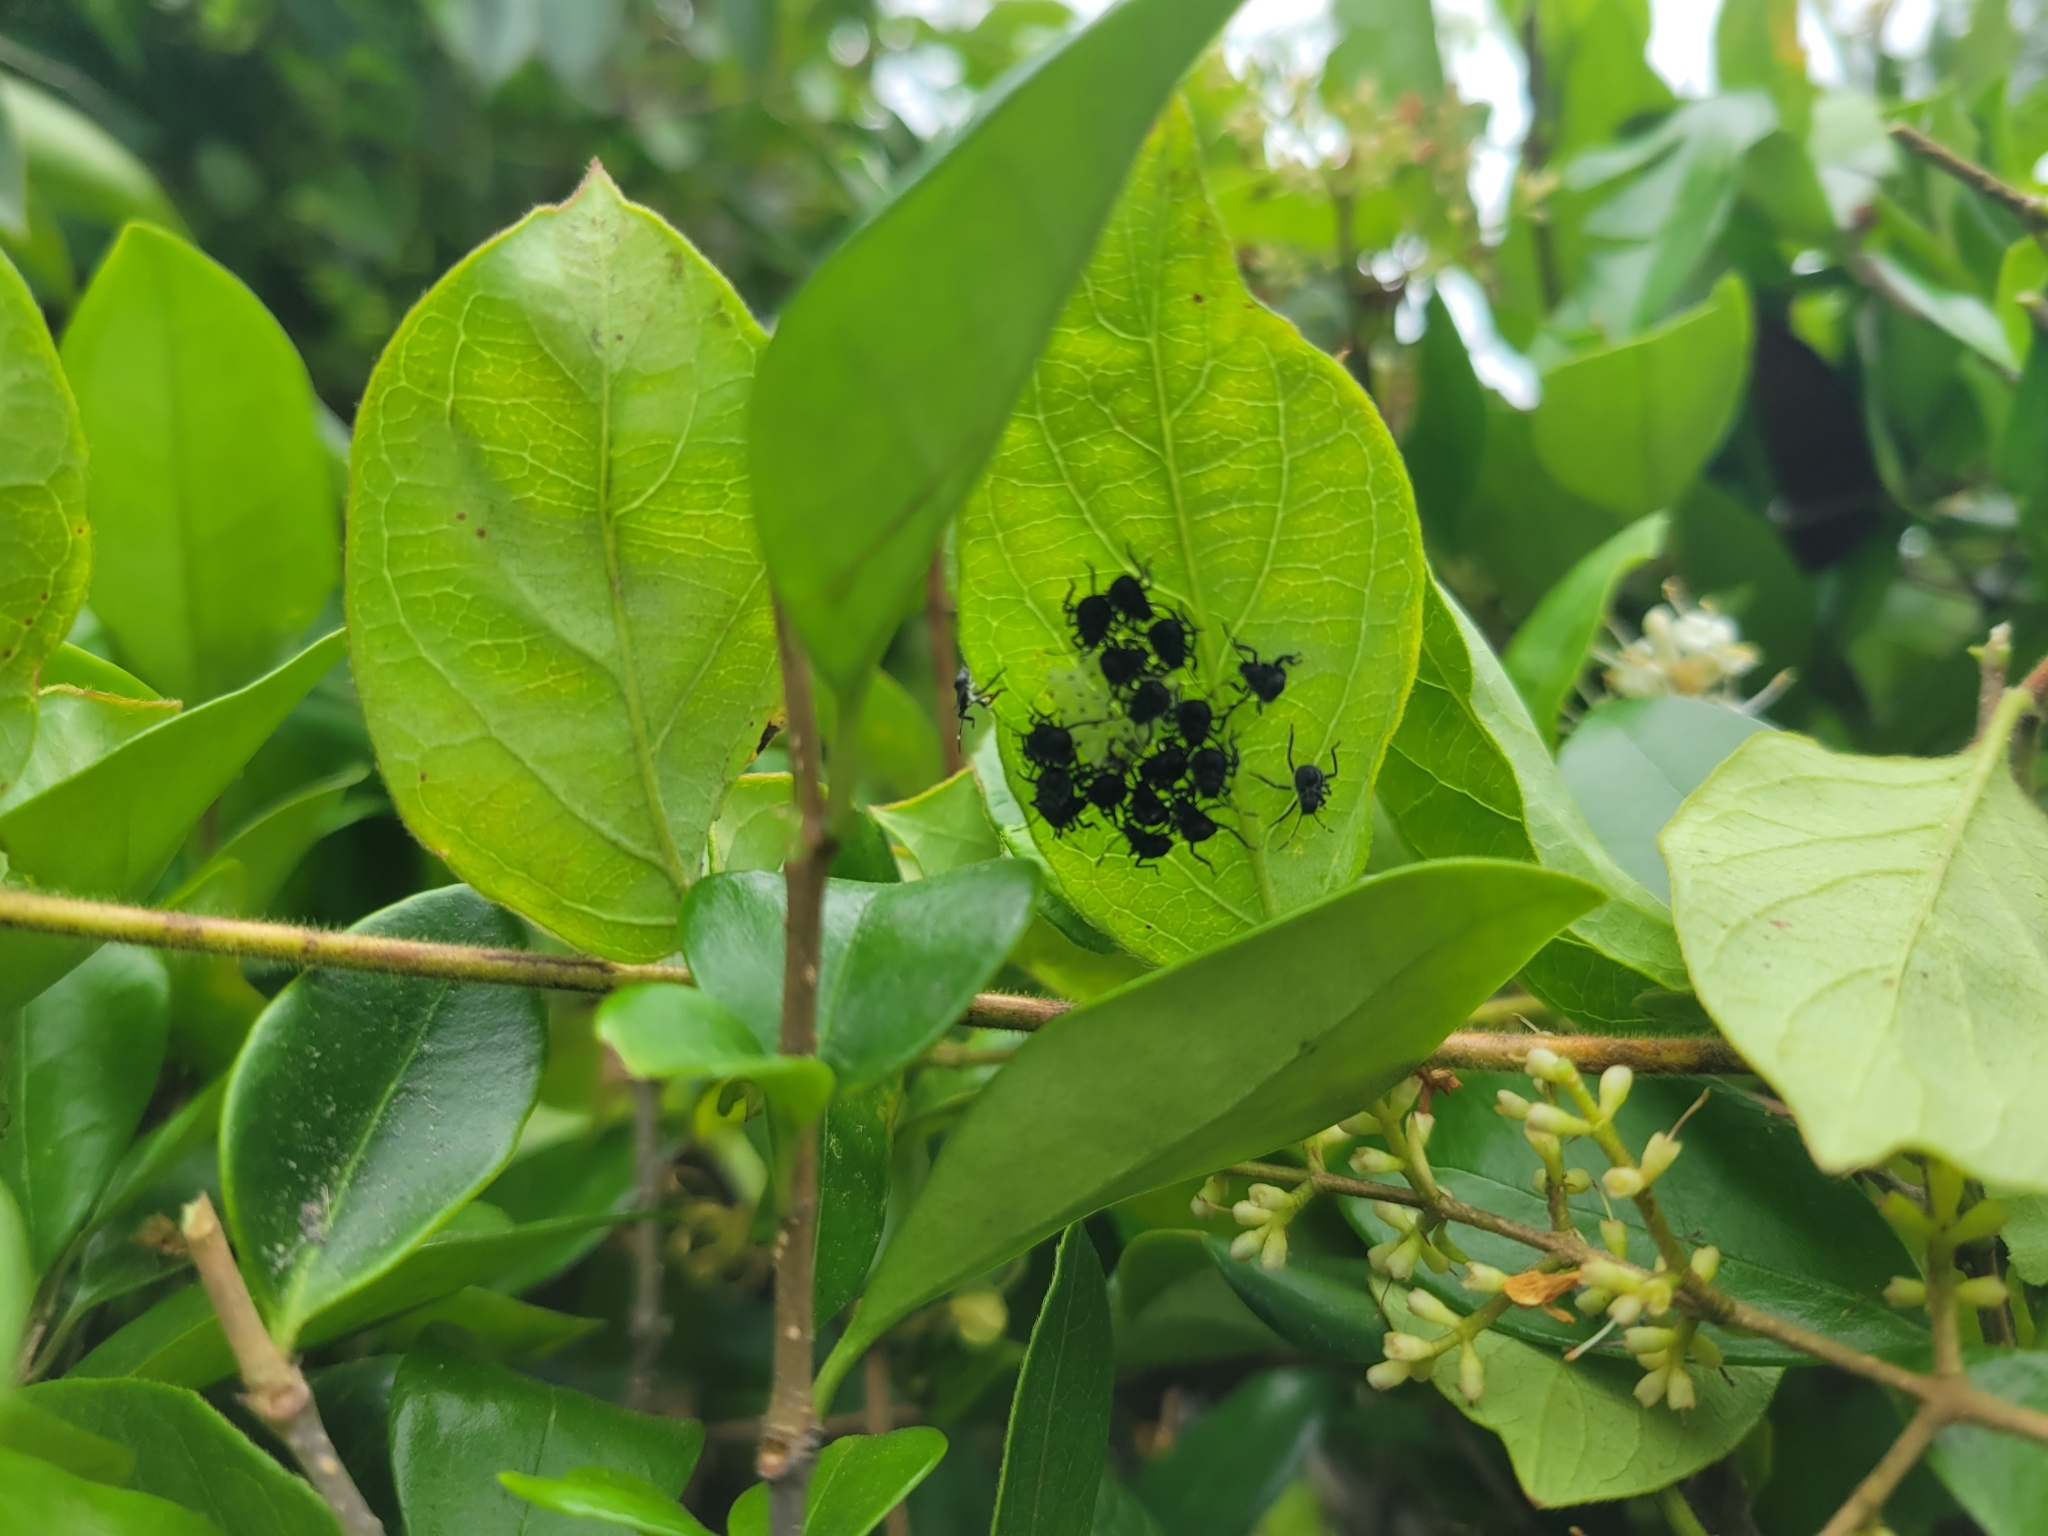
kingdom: Animalia
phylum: Arthropoda
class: Insecta
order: Hemiptera
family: Pentatomidae
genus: Halyomorpha
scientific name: Halyomorpha halys
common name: Brown marmorated stink bug
